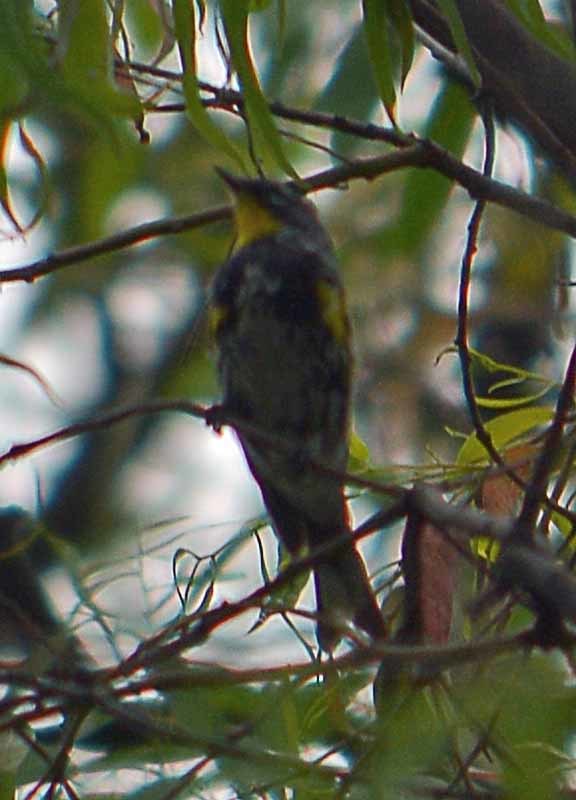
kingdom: Animalia
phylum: Chordata
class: Aves
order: Passeriformes
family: Parulidae
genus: Setophaga
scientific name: Setophaga auduboni
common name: Audubon's warbler
